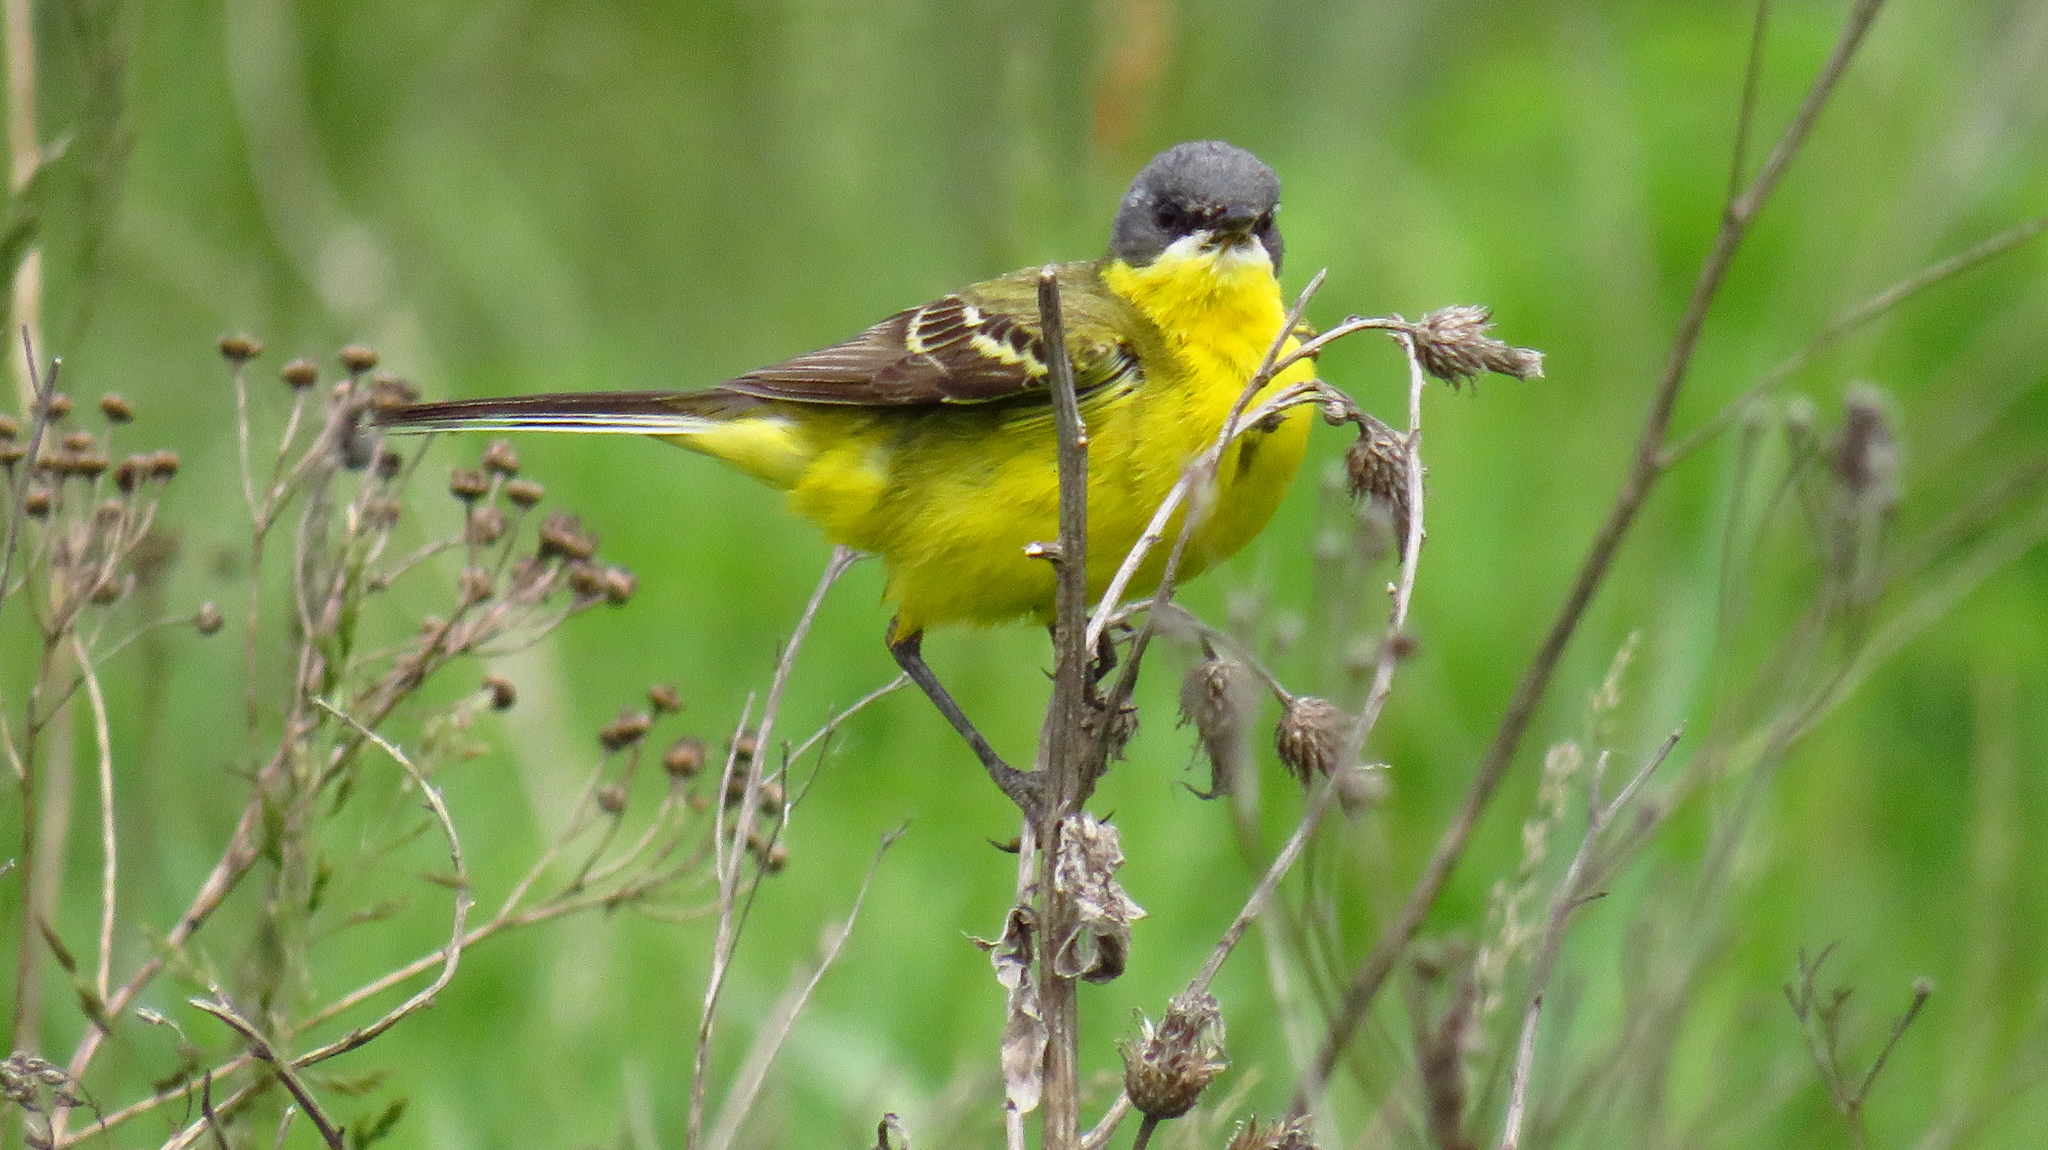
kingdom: Animalia
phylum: Chordata
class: Aves
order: Passeriformes
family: Motacillidae
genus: Motacilla
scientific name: Motacilla flava
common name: Western yellow wagtail
